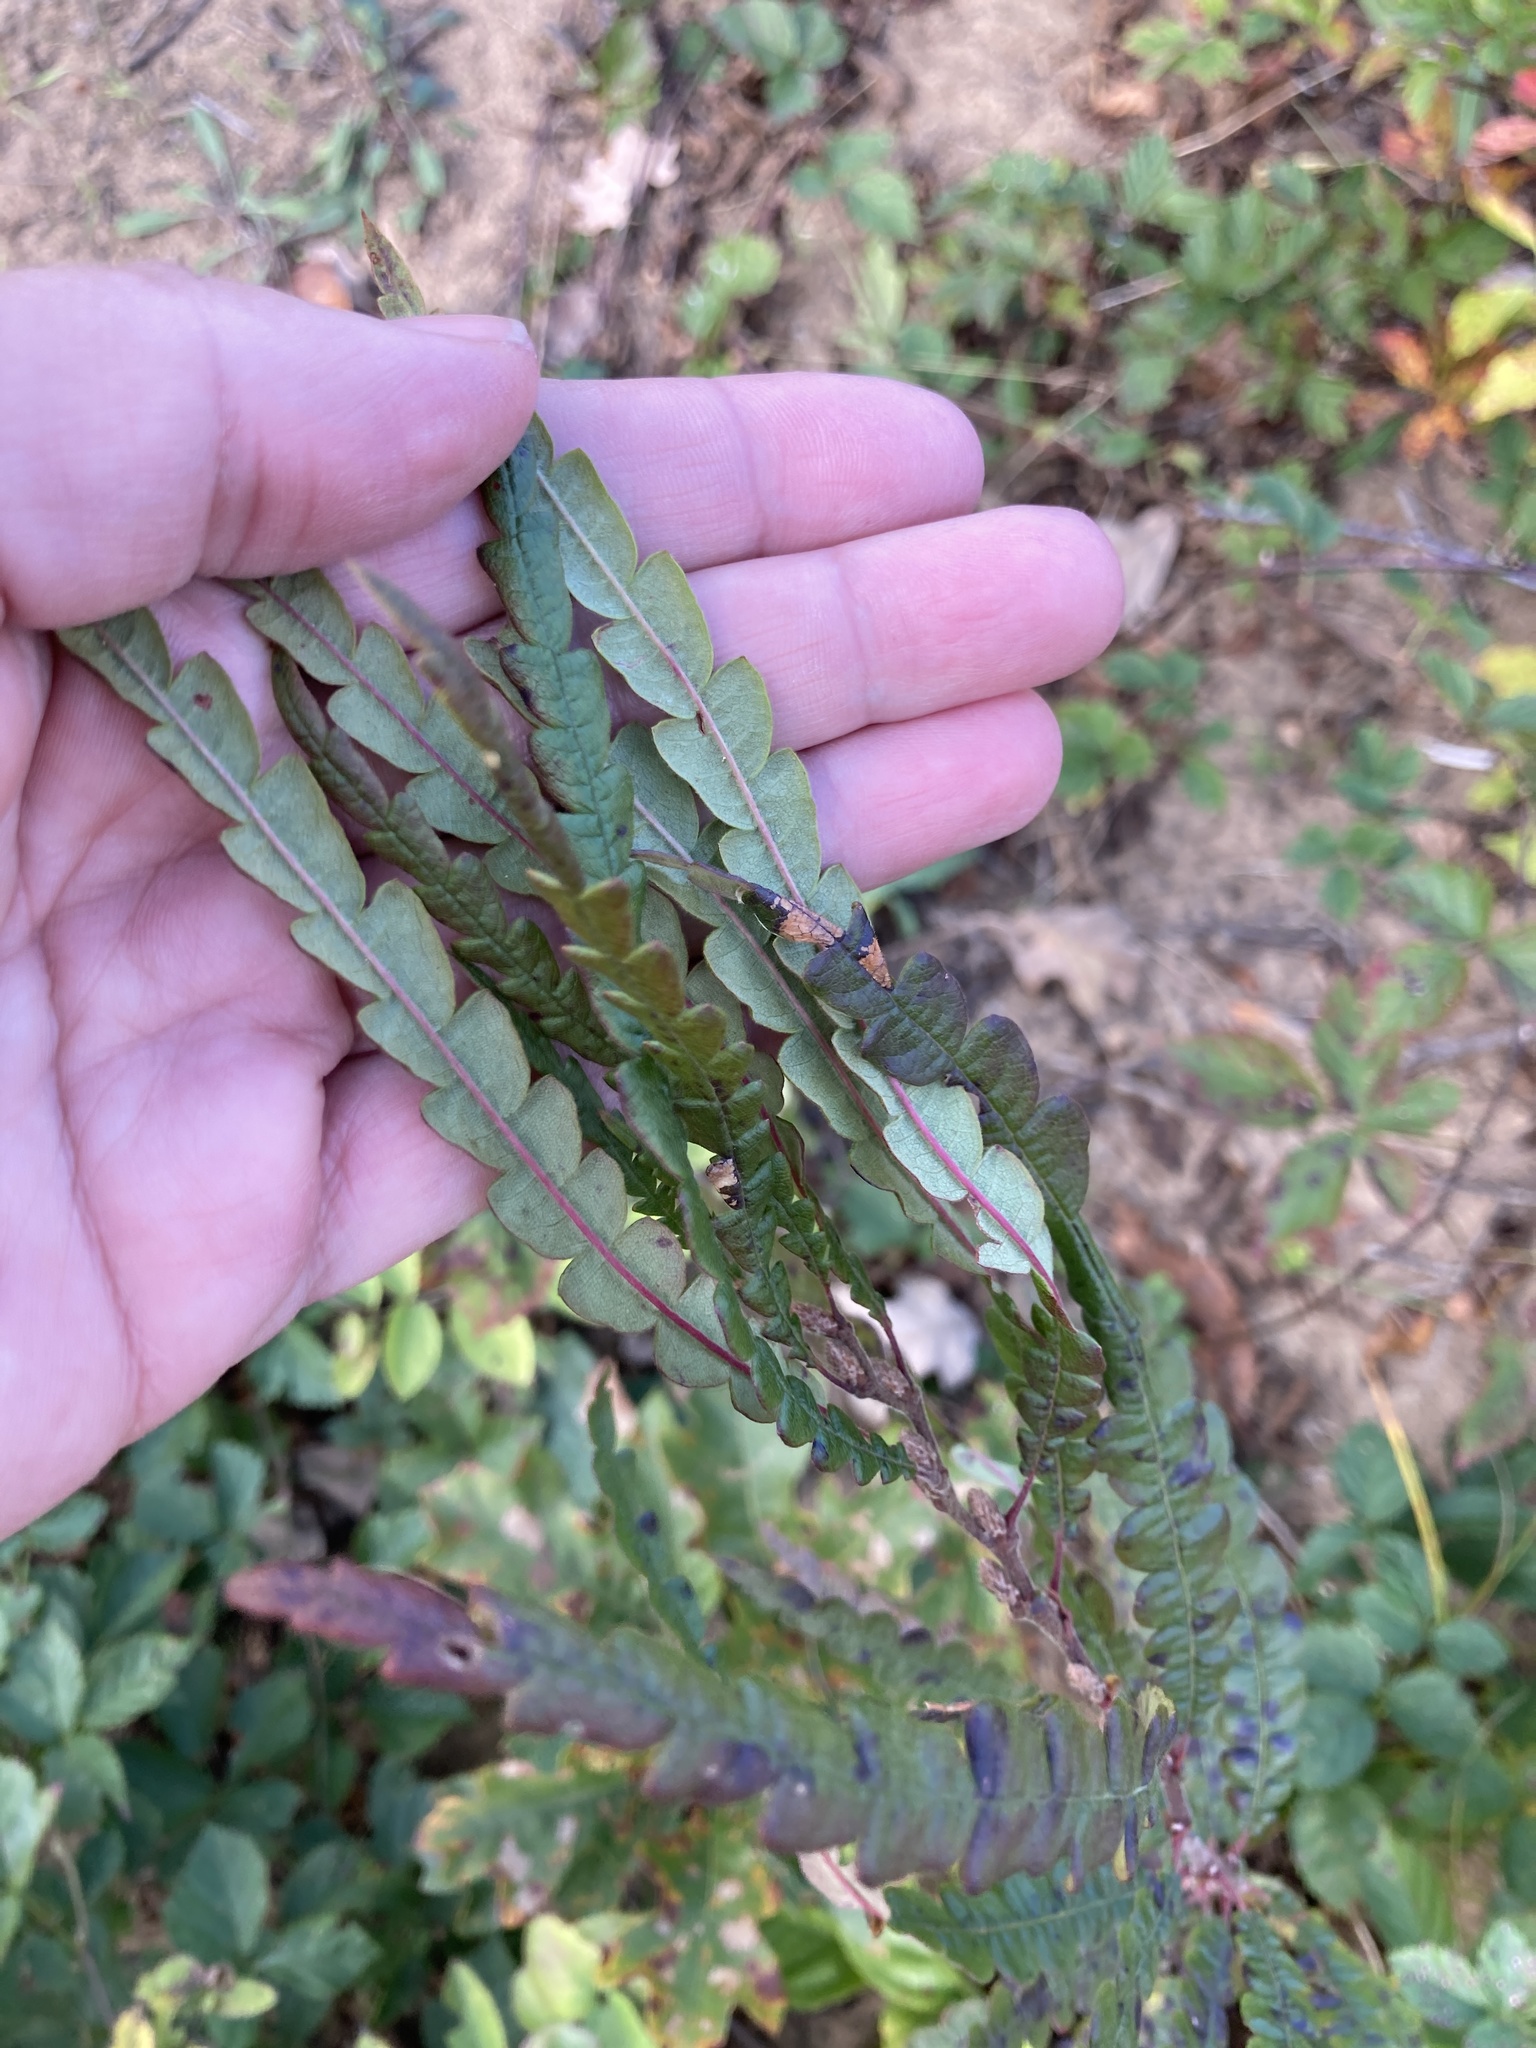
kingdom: Plantae
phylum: Tracheophyta
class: Magnoliopsida
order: Fagales
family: Myricaceae
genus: Comptonia
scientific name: Comptonia peregrina
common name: Sweet-fern
